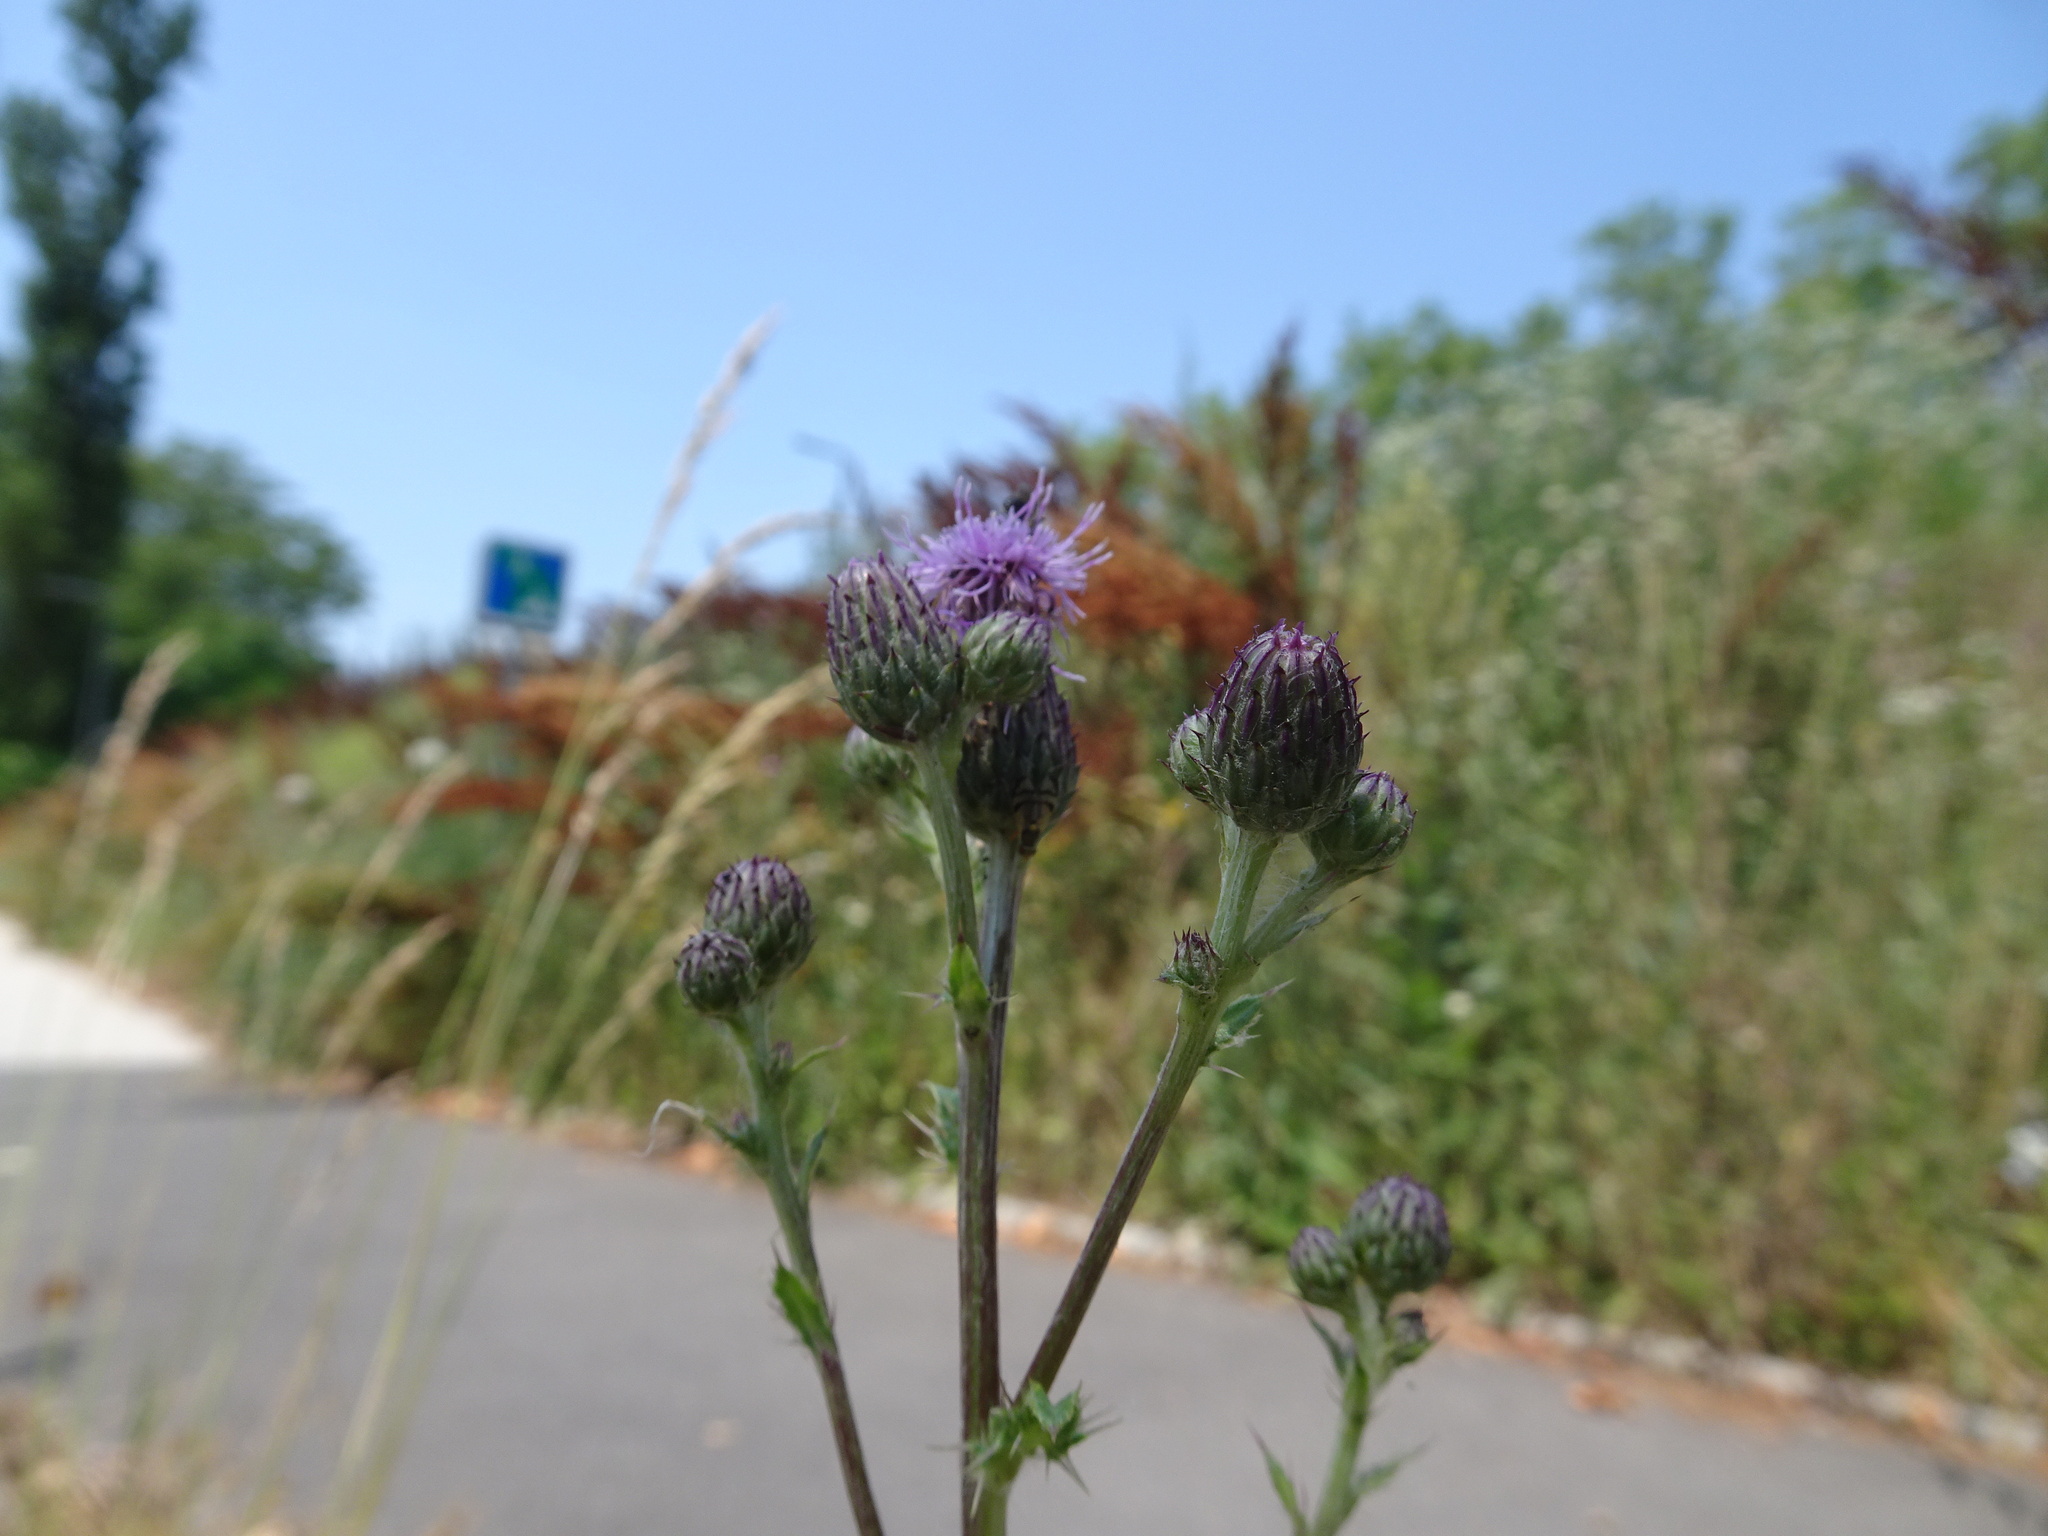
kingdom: Plantae
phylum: Tracheophyta
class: Magnoliopsida
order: Asterales
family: Asteraceae
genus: Cirsium
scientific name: Cirsium arvense
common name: Creeping thistle
